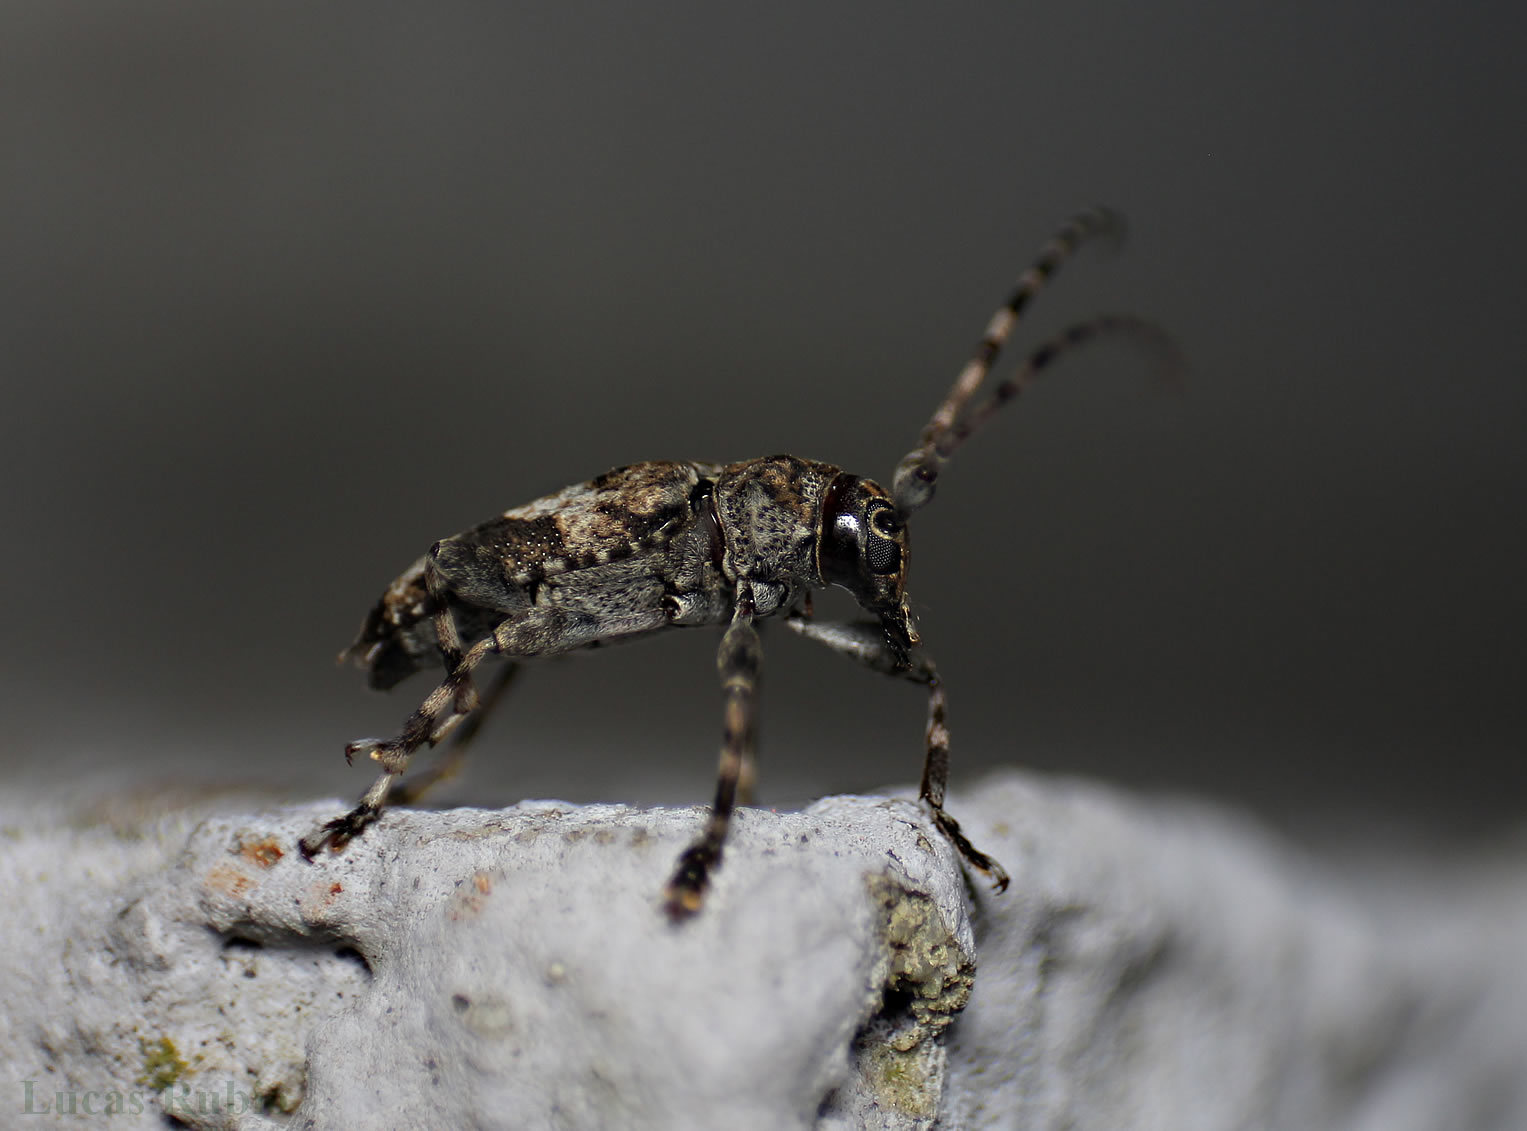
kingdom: Animalia
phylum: Arthropoda
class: Insecta
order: Coleoptera
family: Cerambycidae
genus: Psapharochrus
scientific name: Psapharochrus jaspideus
